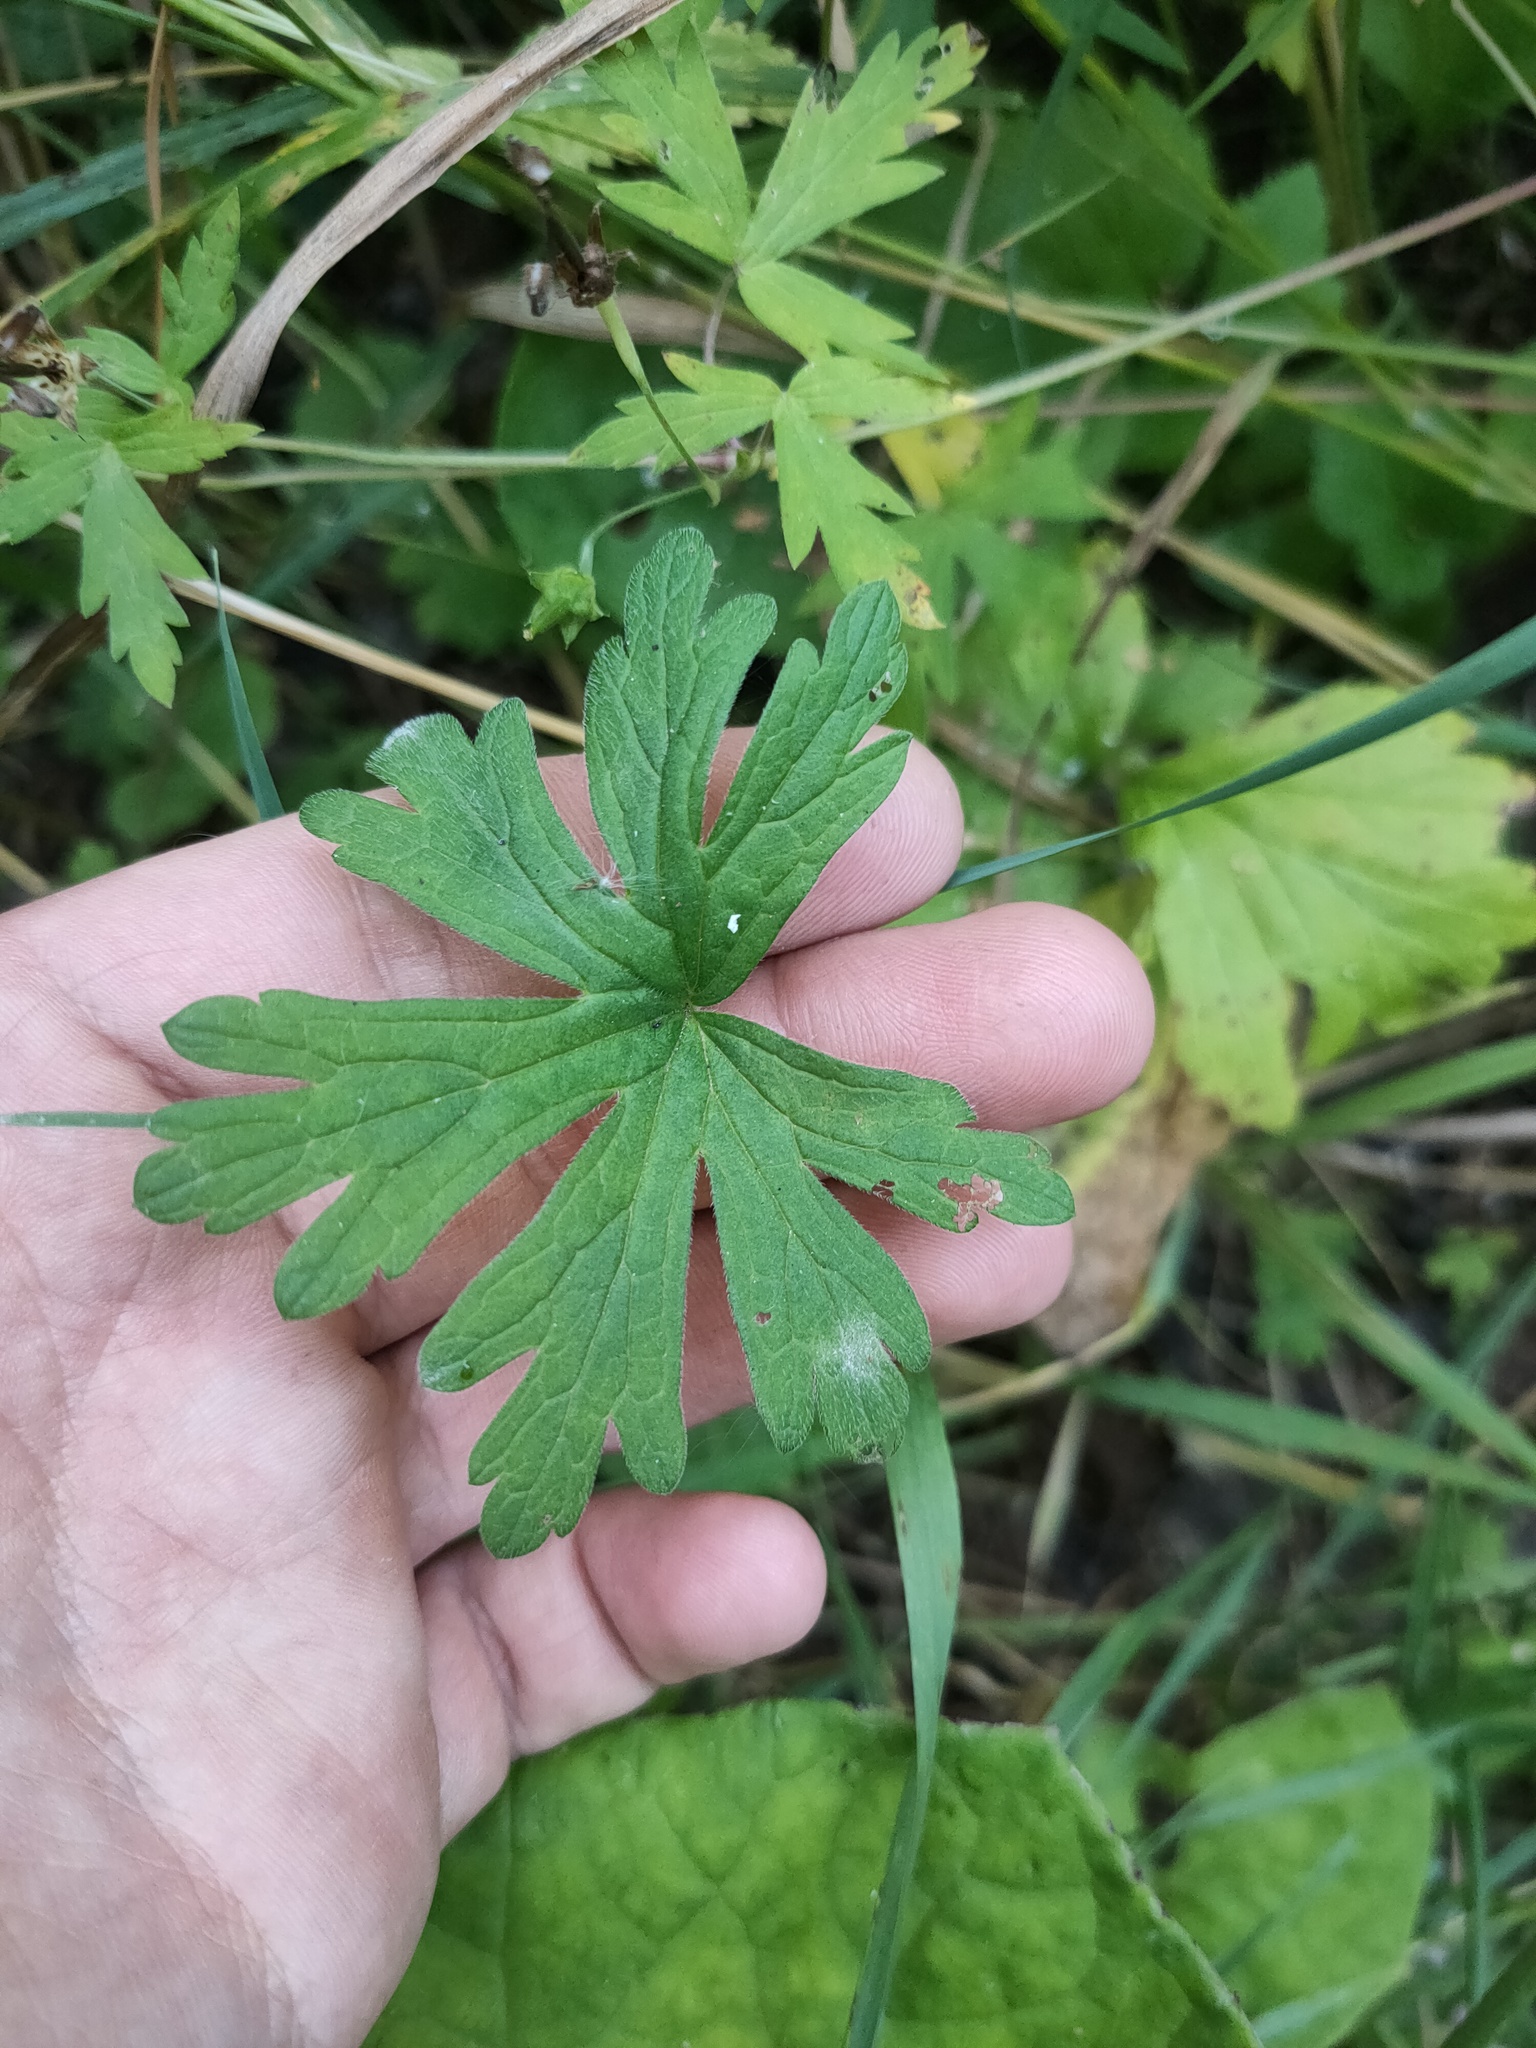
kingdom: Plantae
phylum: Tracheophyta
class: Magnoliopsida
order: Geraniales
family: Geraniaceae
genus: Geranium
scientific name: Geranium pratense
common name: Meadow crane's-bill
